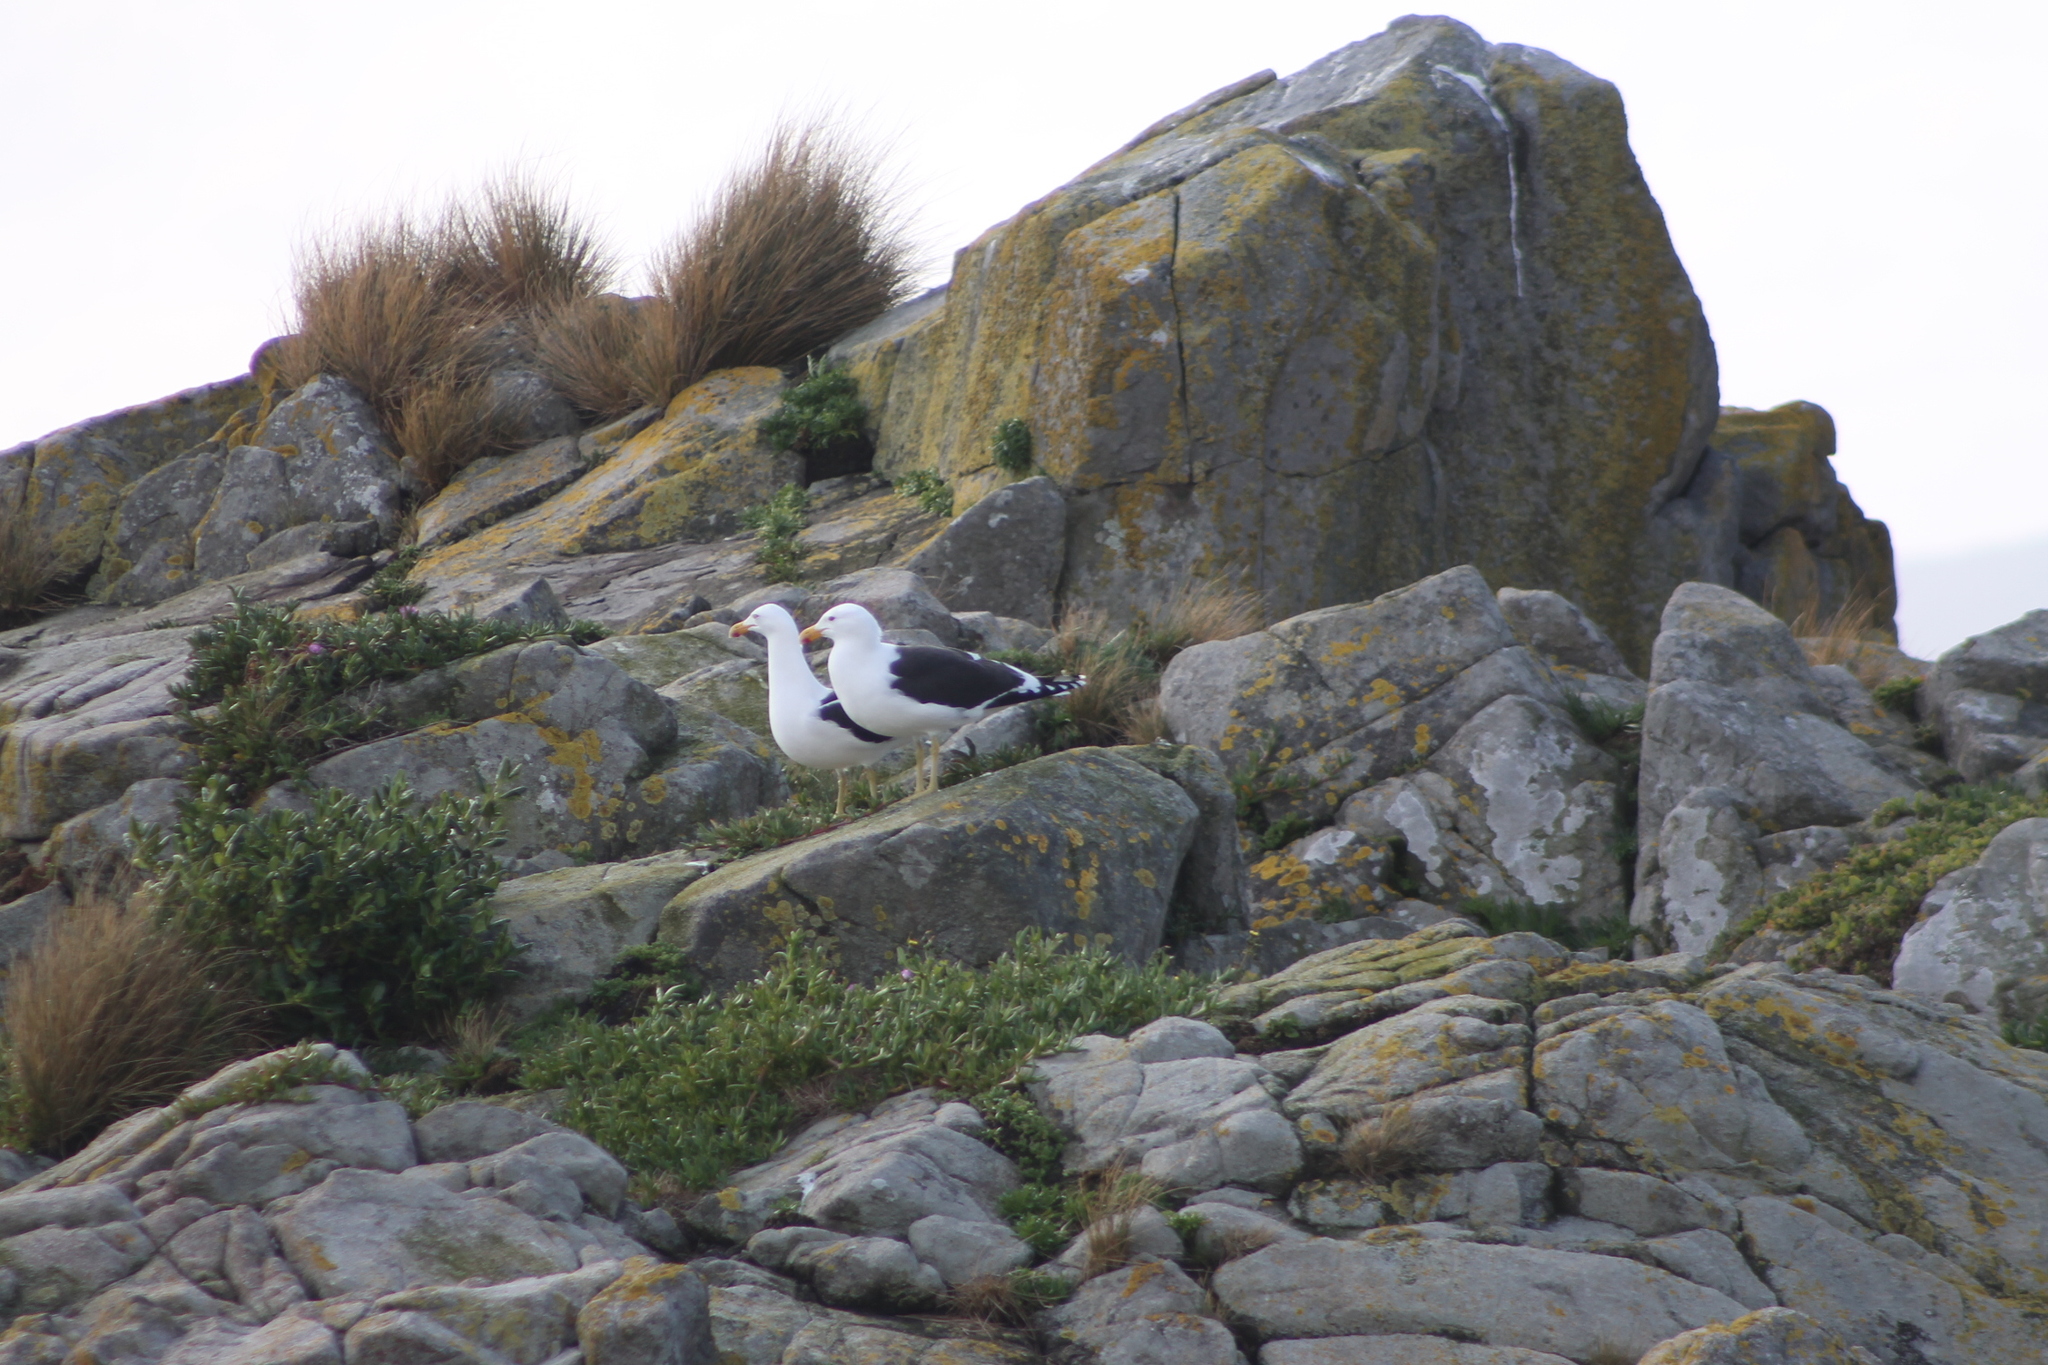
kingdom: Animalia
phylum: Chordata
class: Aves
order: Charadriiformes
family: Laridae
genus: Larus
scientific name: Larus dominicanus
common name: Kelp gull
